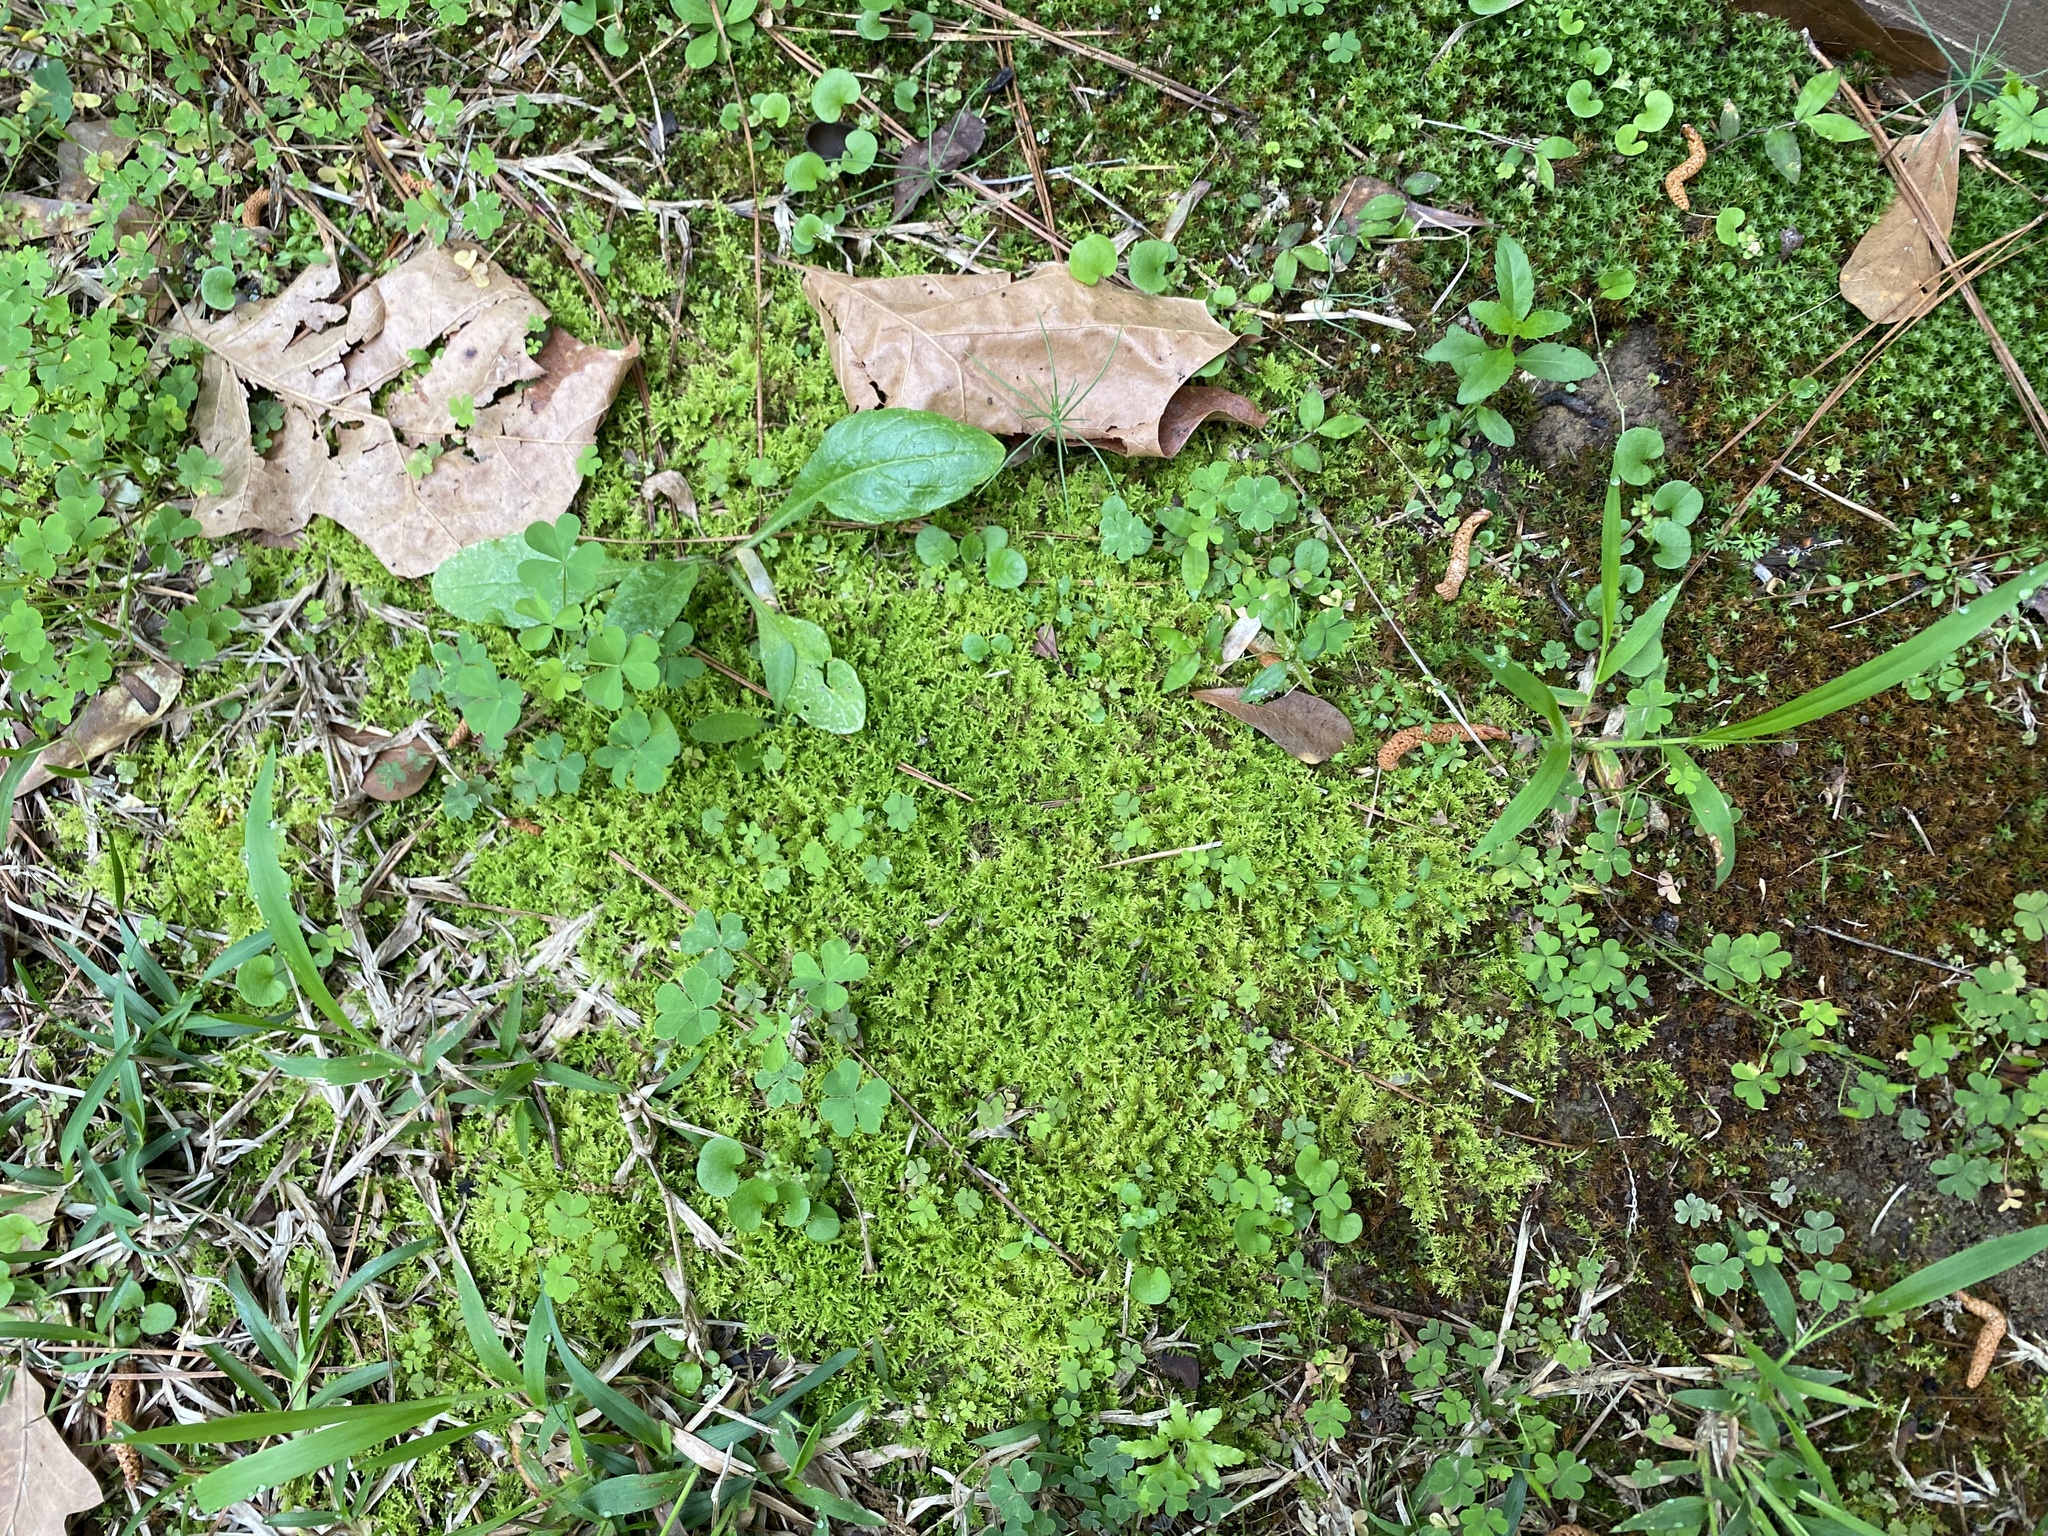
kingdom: Plantae
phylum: Bryophyta
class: Bryopsida
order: Hypnales
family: Thuidiaceae
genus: Thuidium
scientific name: Thuidium delicatulum
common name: Delicate fern moss
